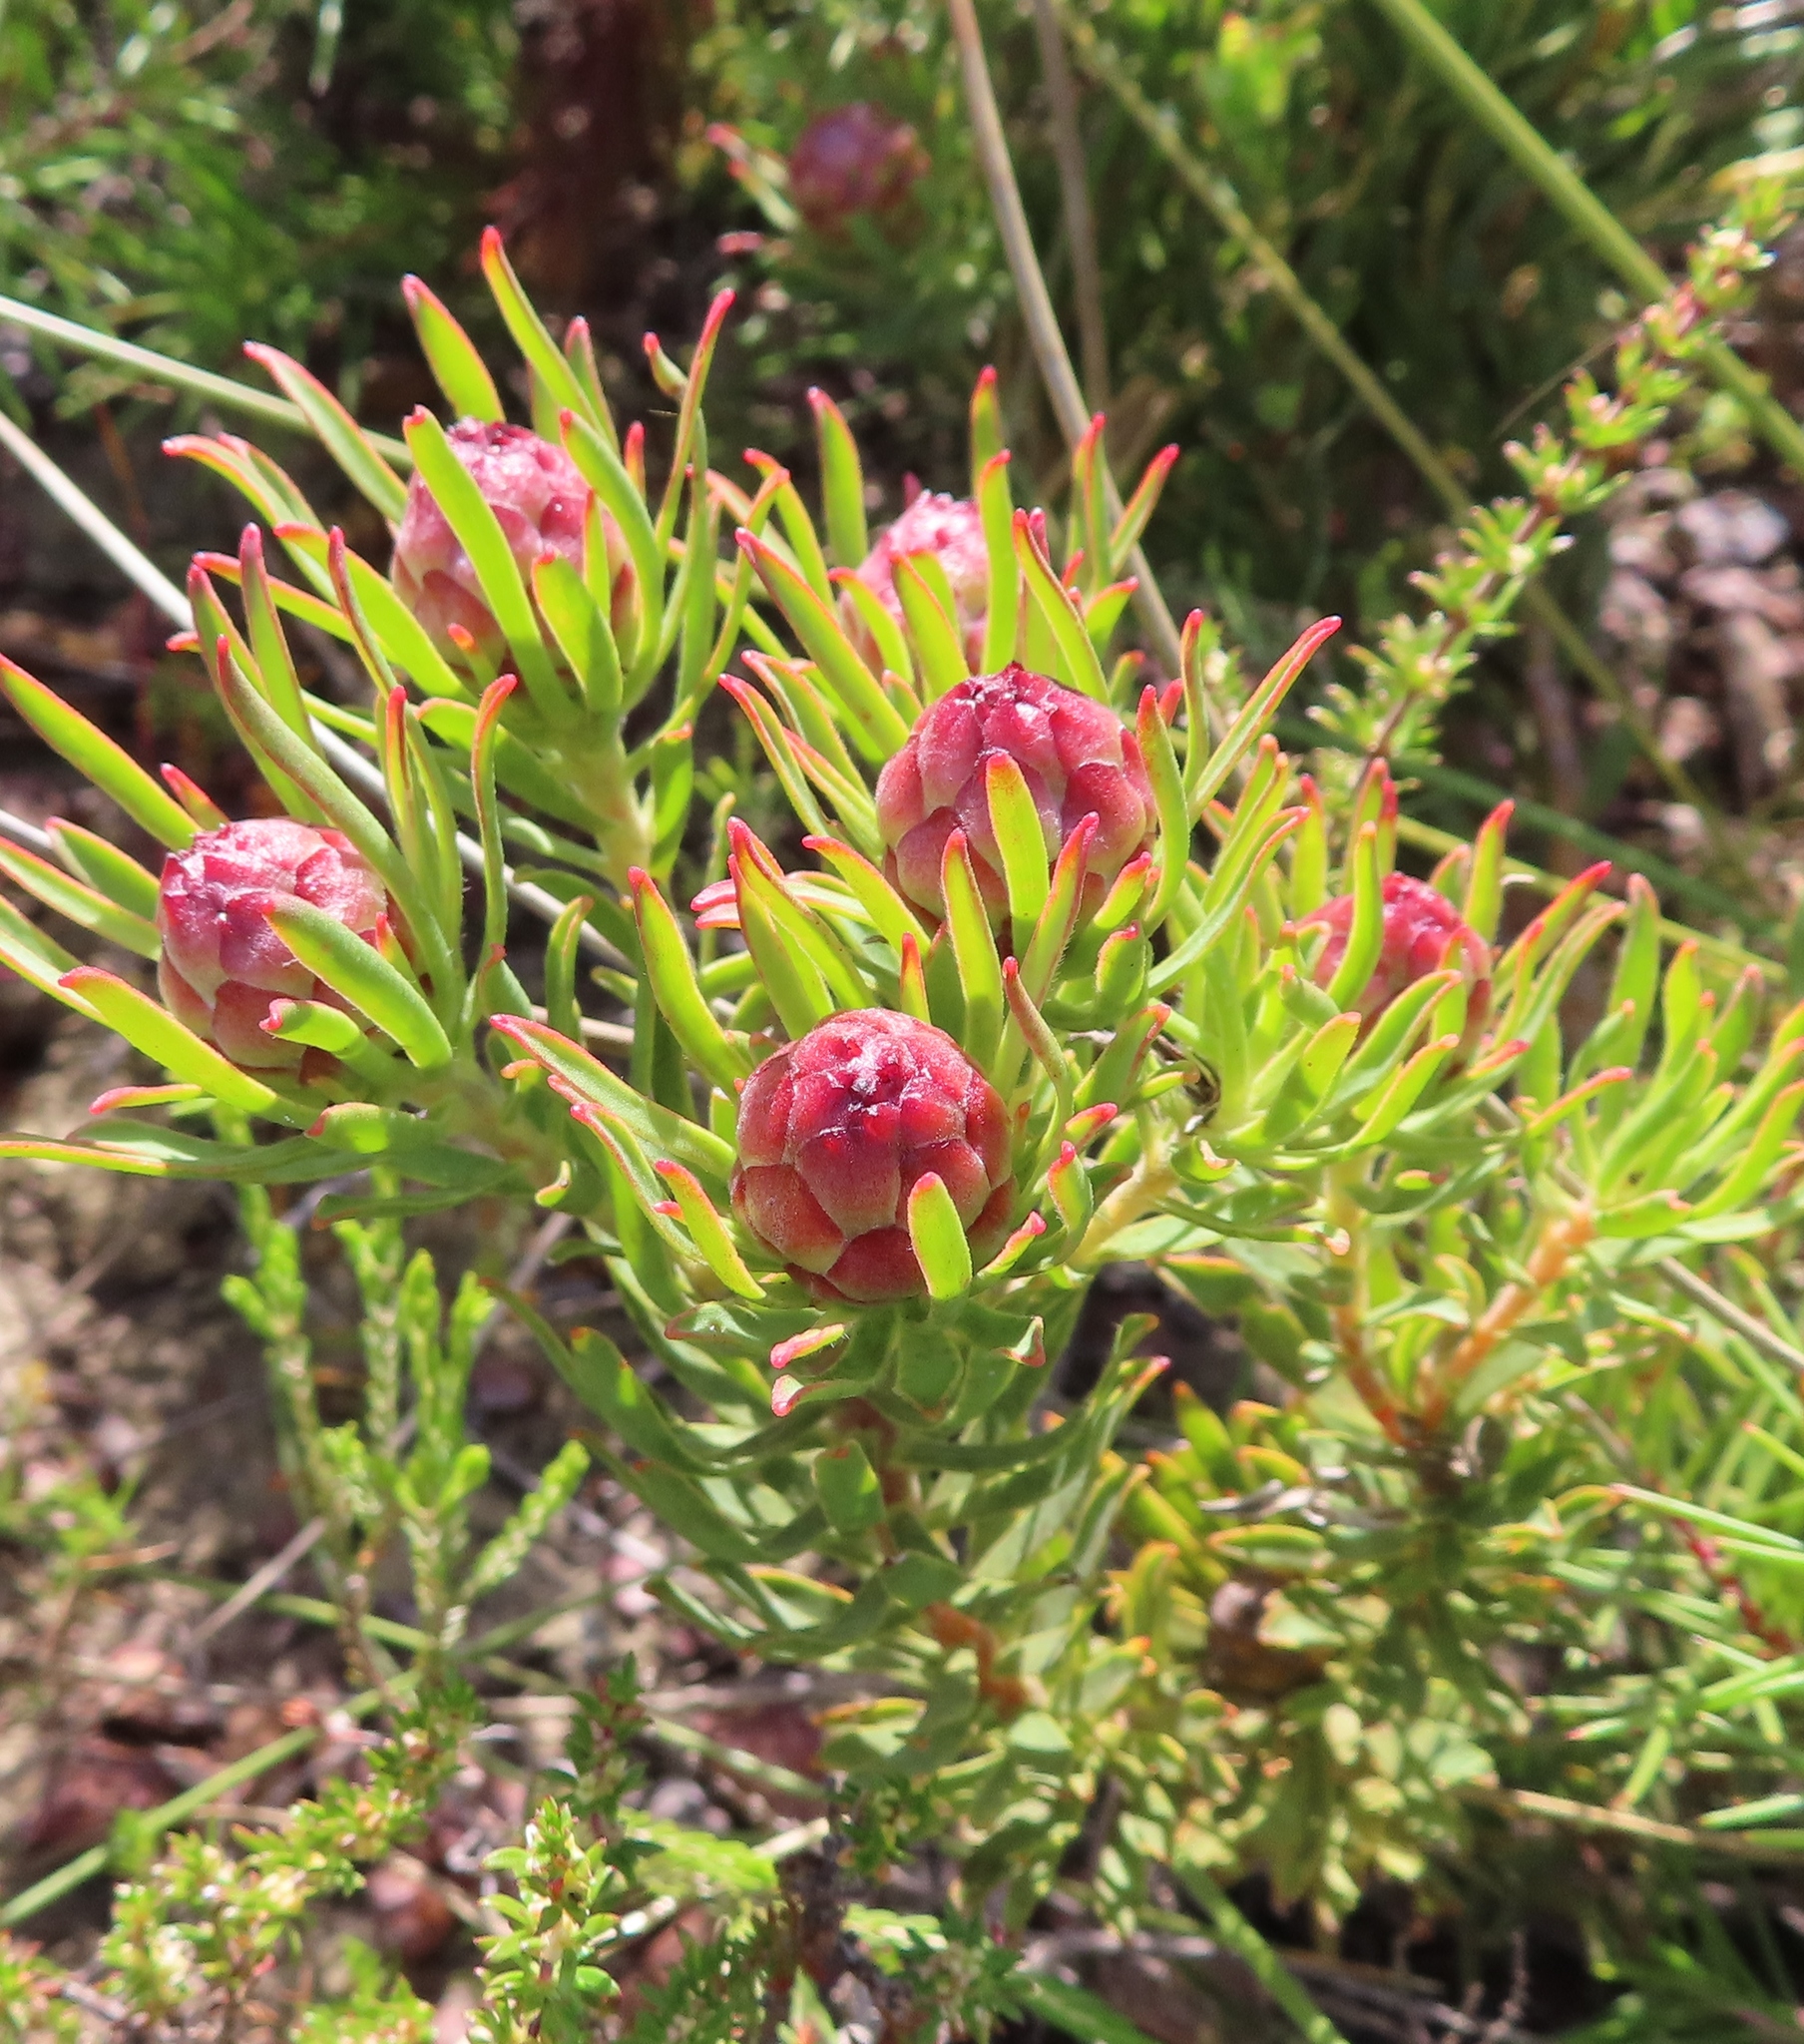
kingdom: Plantae
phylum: Tracheophyta
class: Magnoliopsida
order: Proteales
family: Proteaceae
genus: Leucadendron
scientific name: Leucadendron teretifolium
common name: Needle-leaf conebush
